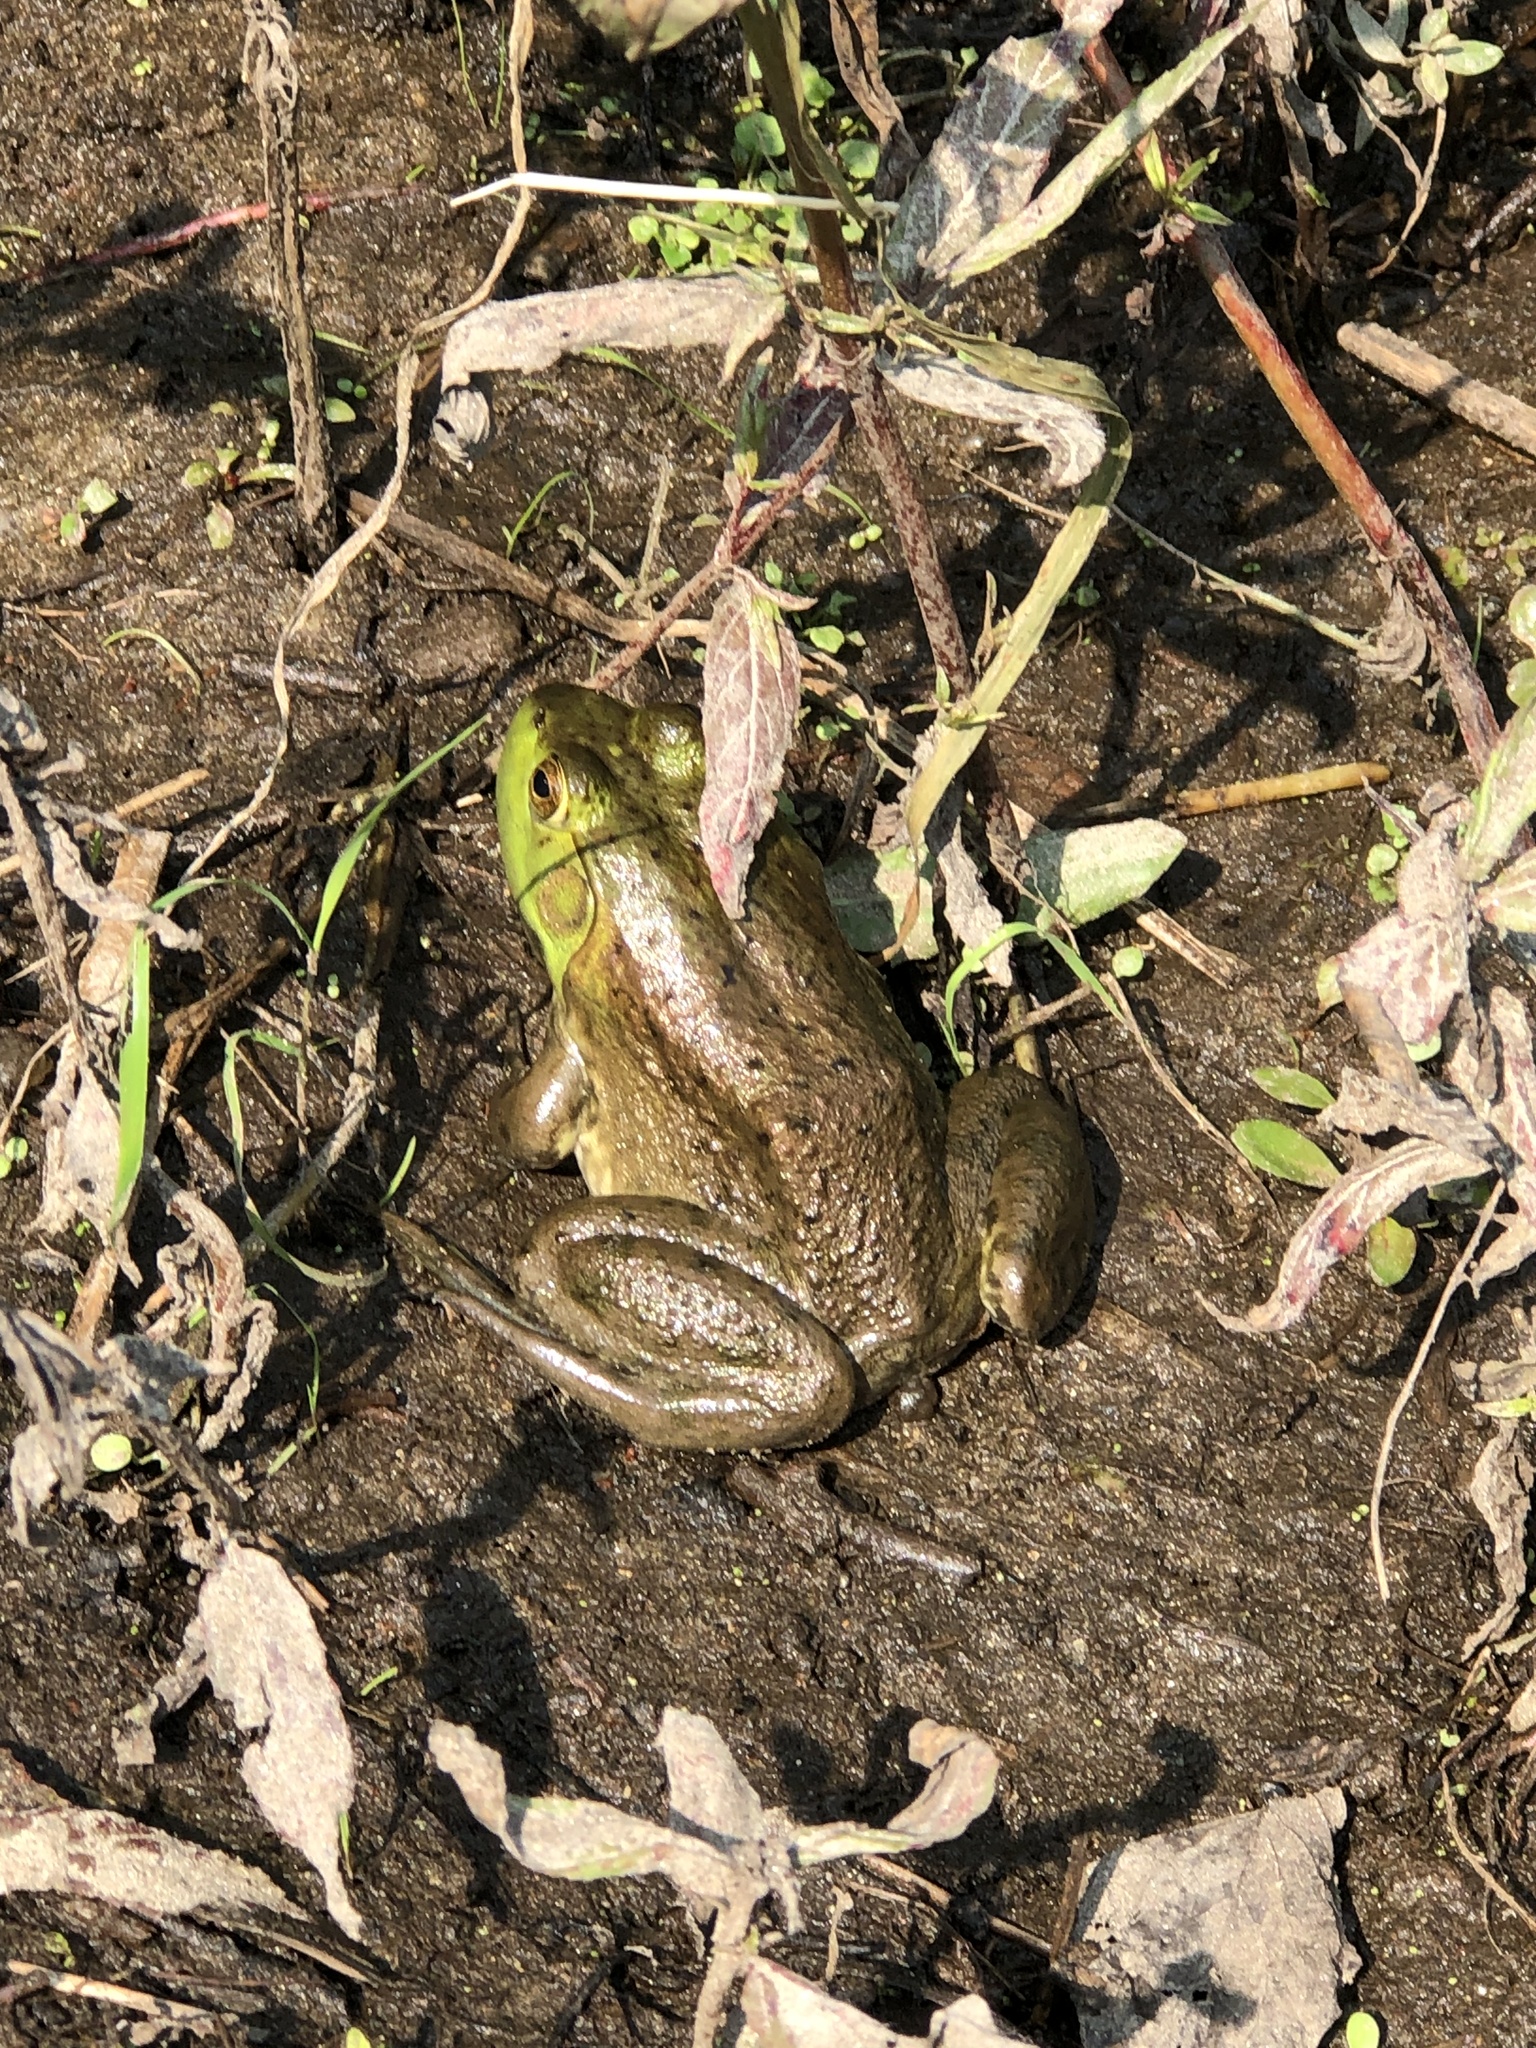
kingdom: Animalia
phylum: Chordata
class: Amphibia
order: Anura
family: Ranidae
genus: Lithobates
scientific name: Lithobates catesbeianus
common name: American bullfrog
